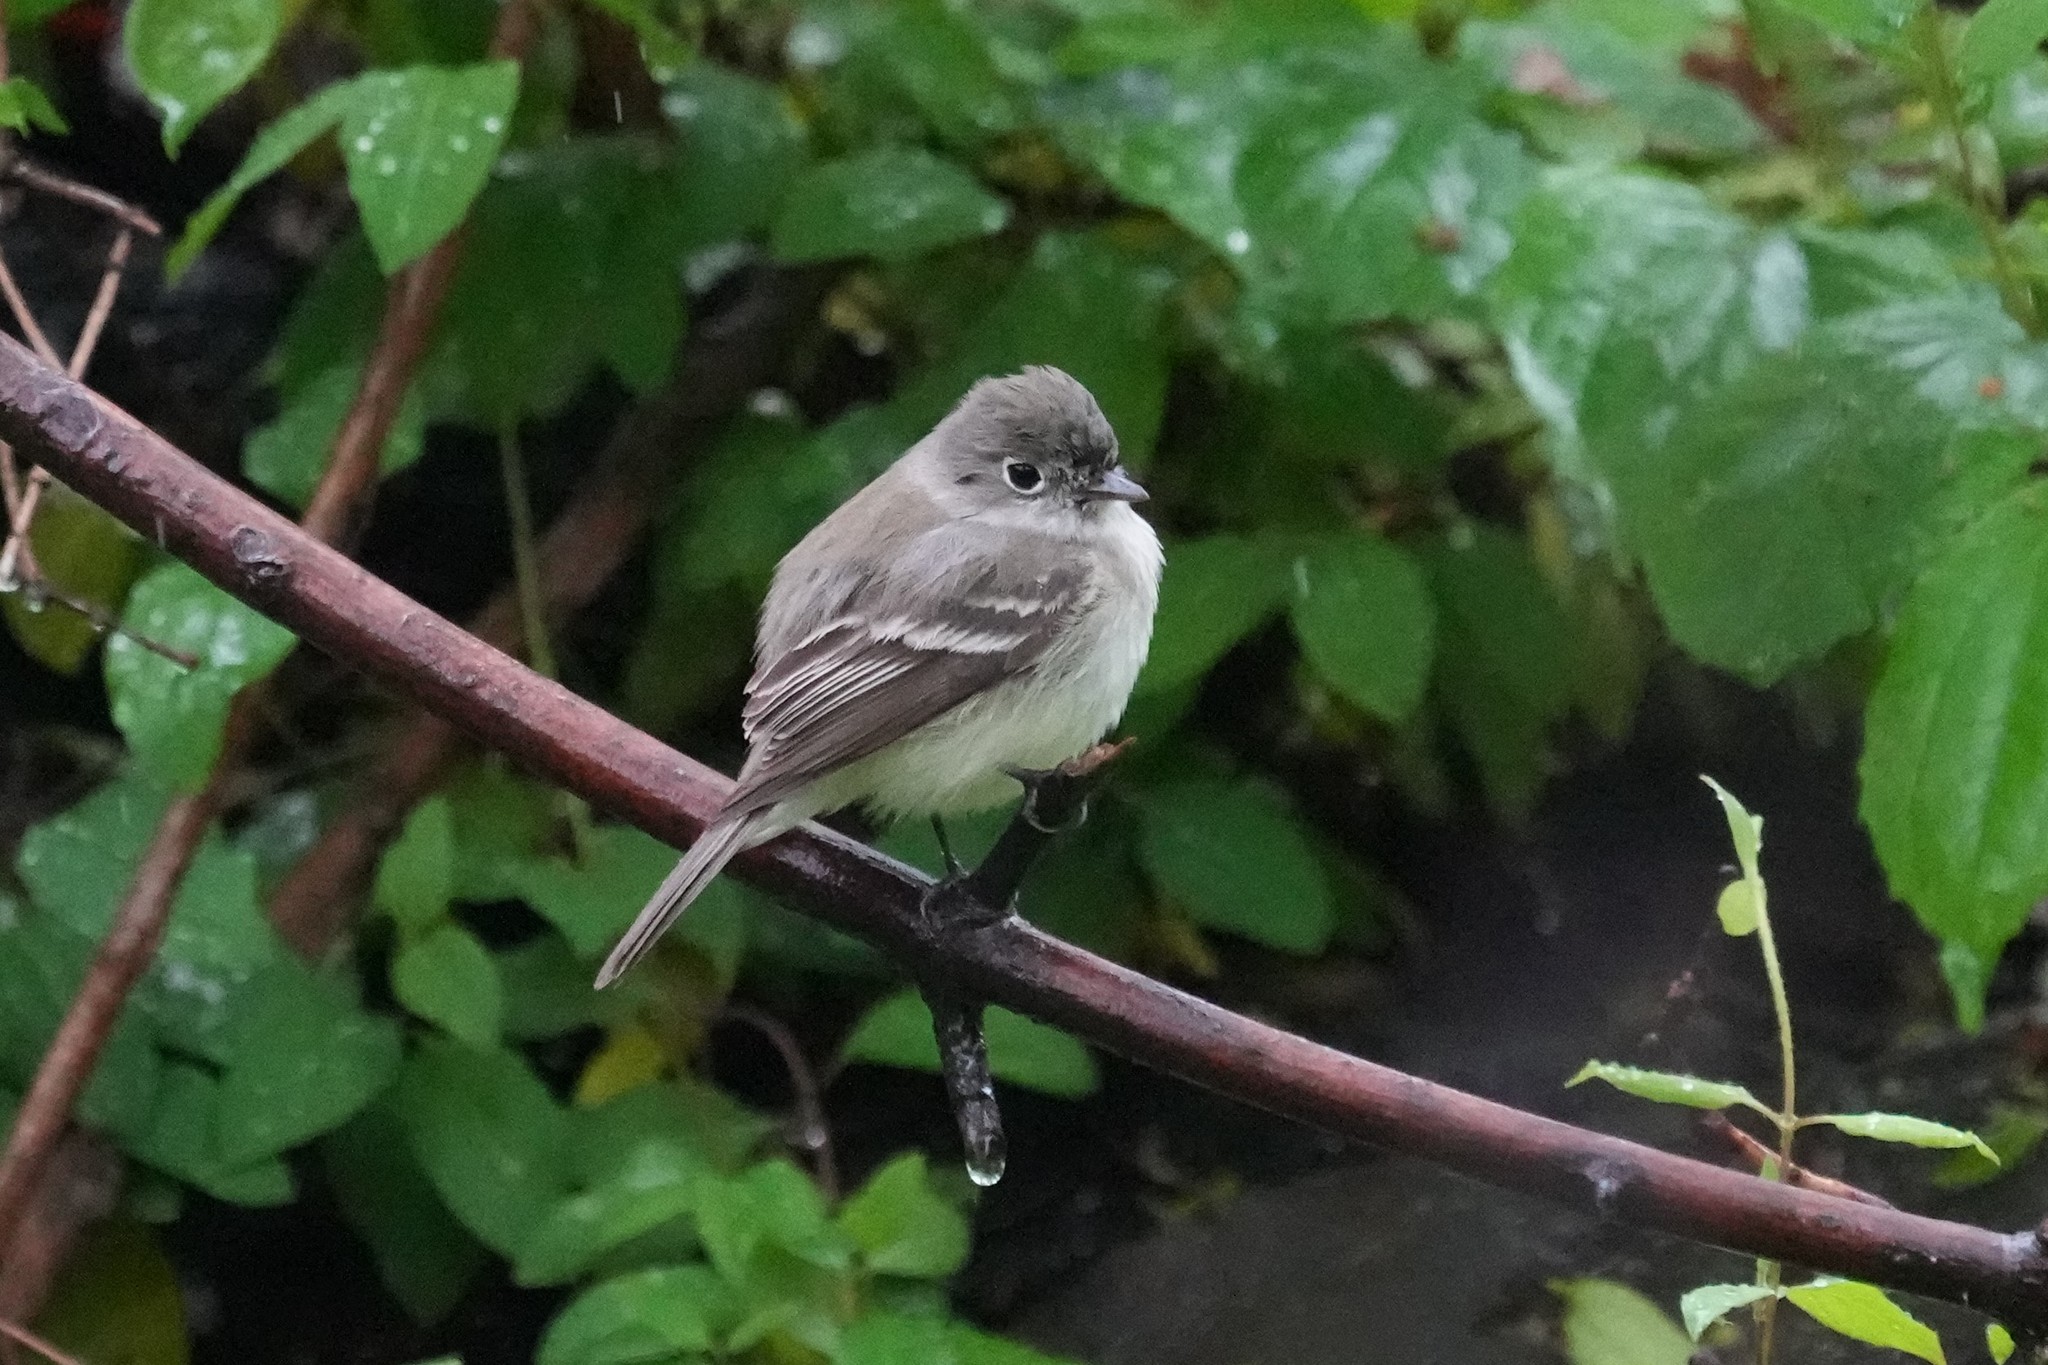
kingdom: Animalia
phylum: Chordata
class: Aves
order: Passeriformes
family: Tyrannidae
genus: Empidonax
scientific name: Empidonax minimus
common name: Least flycatcher
